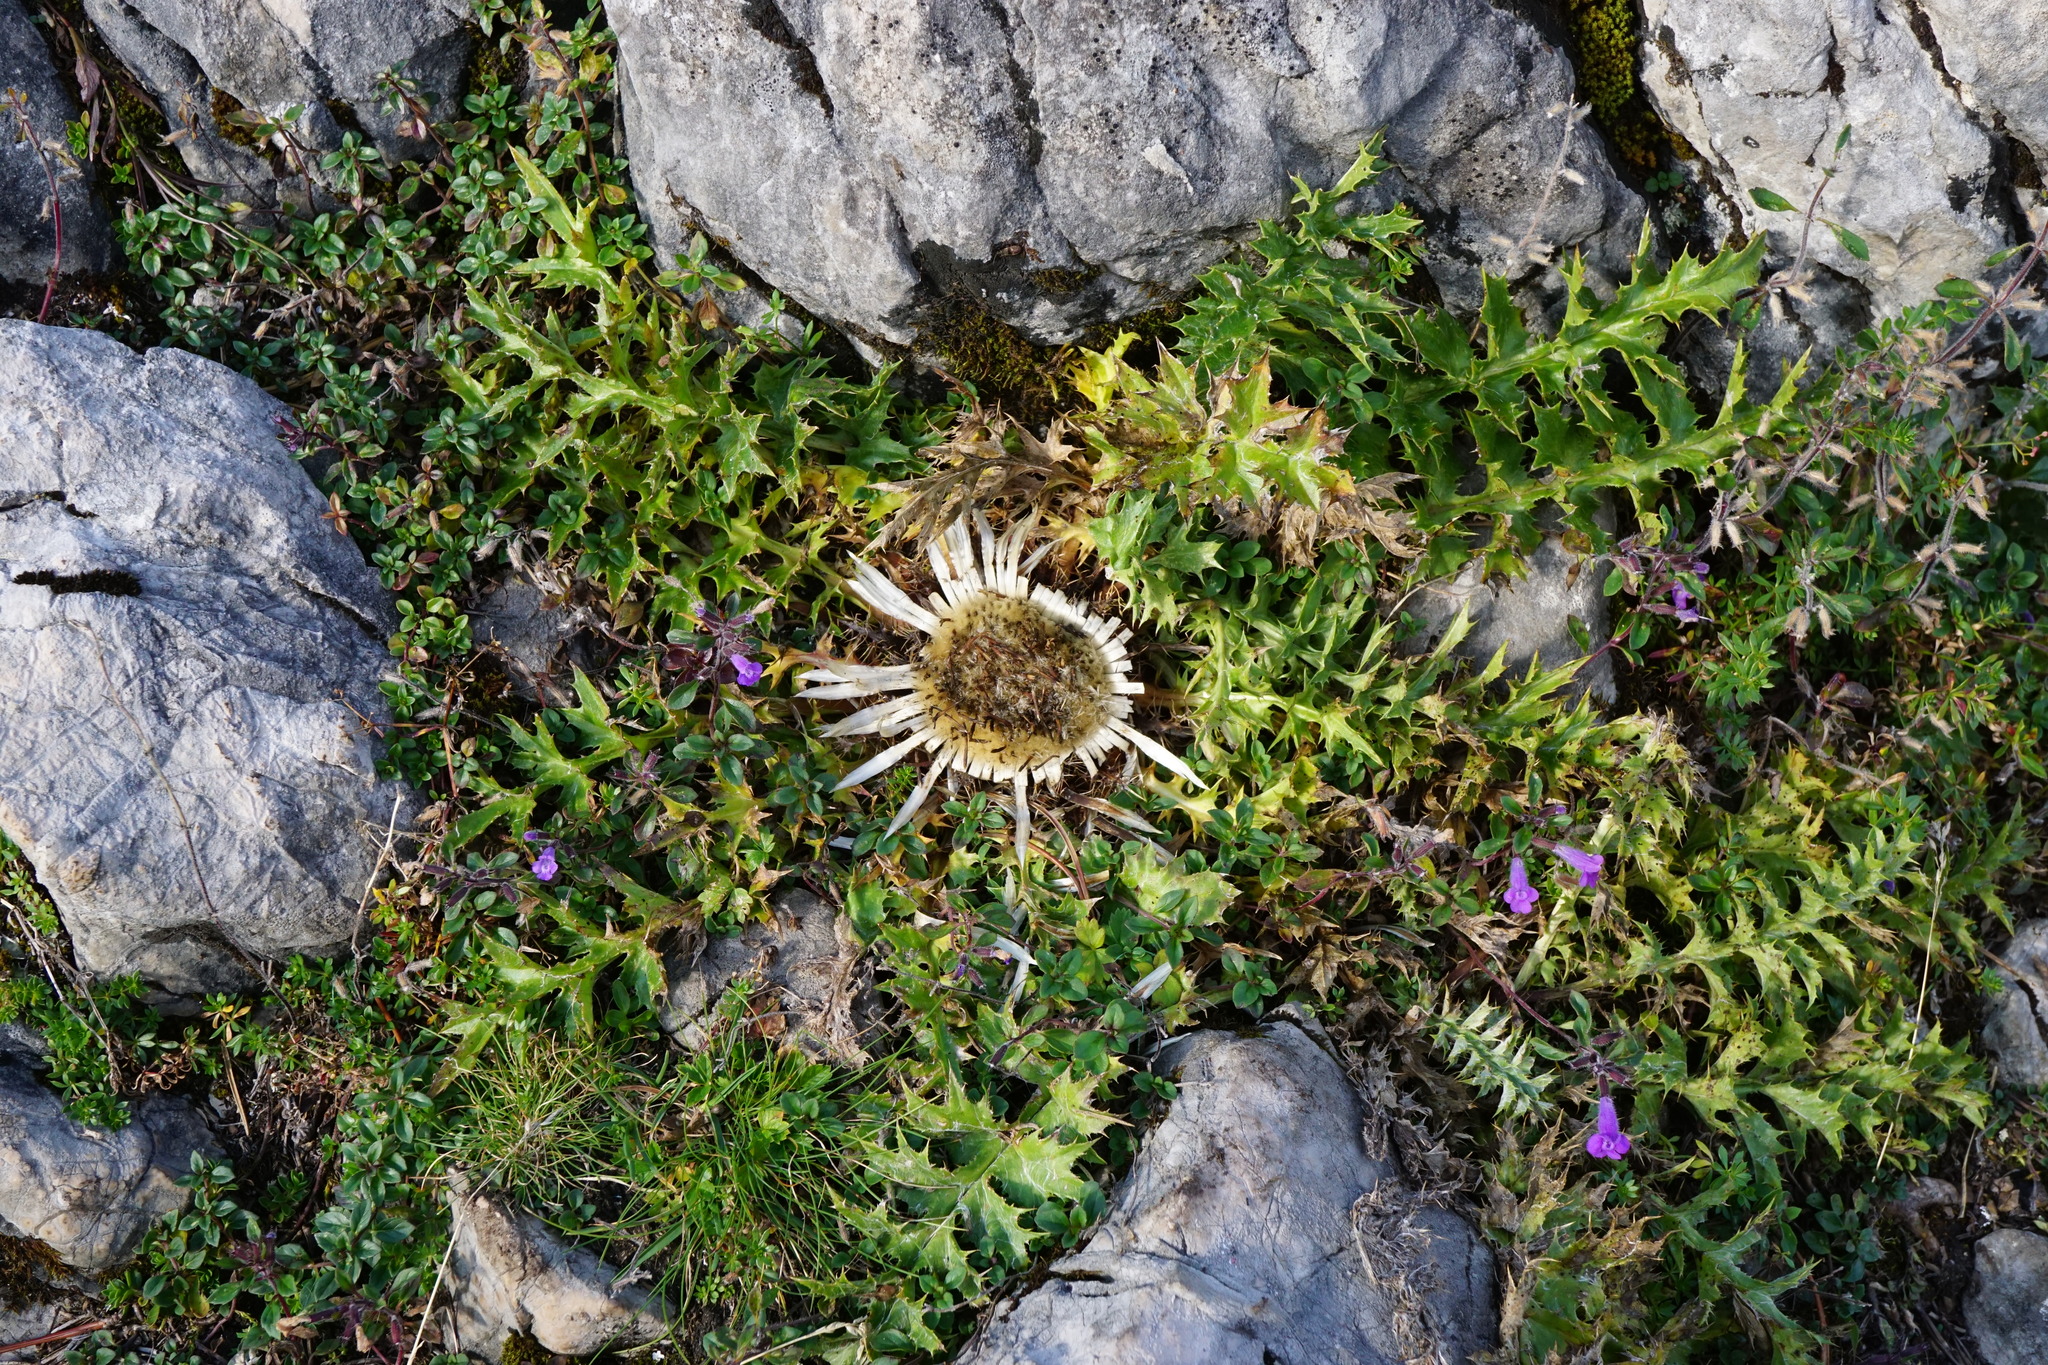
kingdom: Plantae
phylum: Tracheophyta
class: Magnoliopsida
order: Asterales
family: Asteraceae
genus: Carlina
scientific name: Carlina acaulis
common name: Stemless carline thistle
